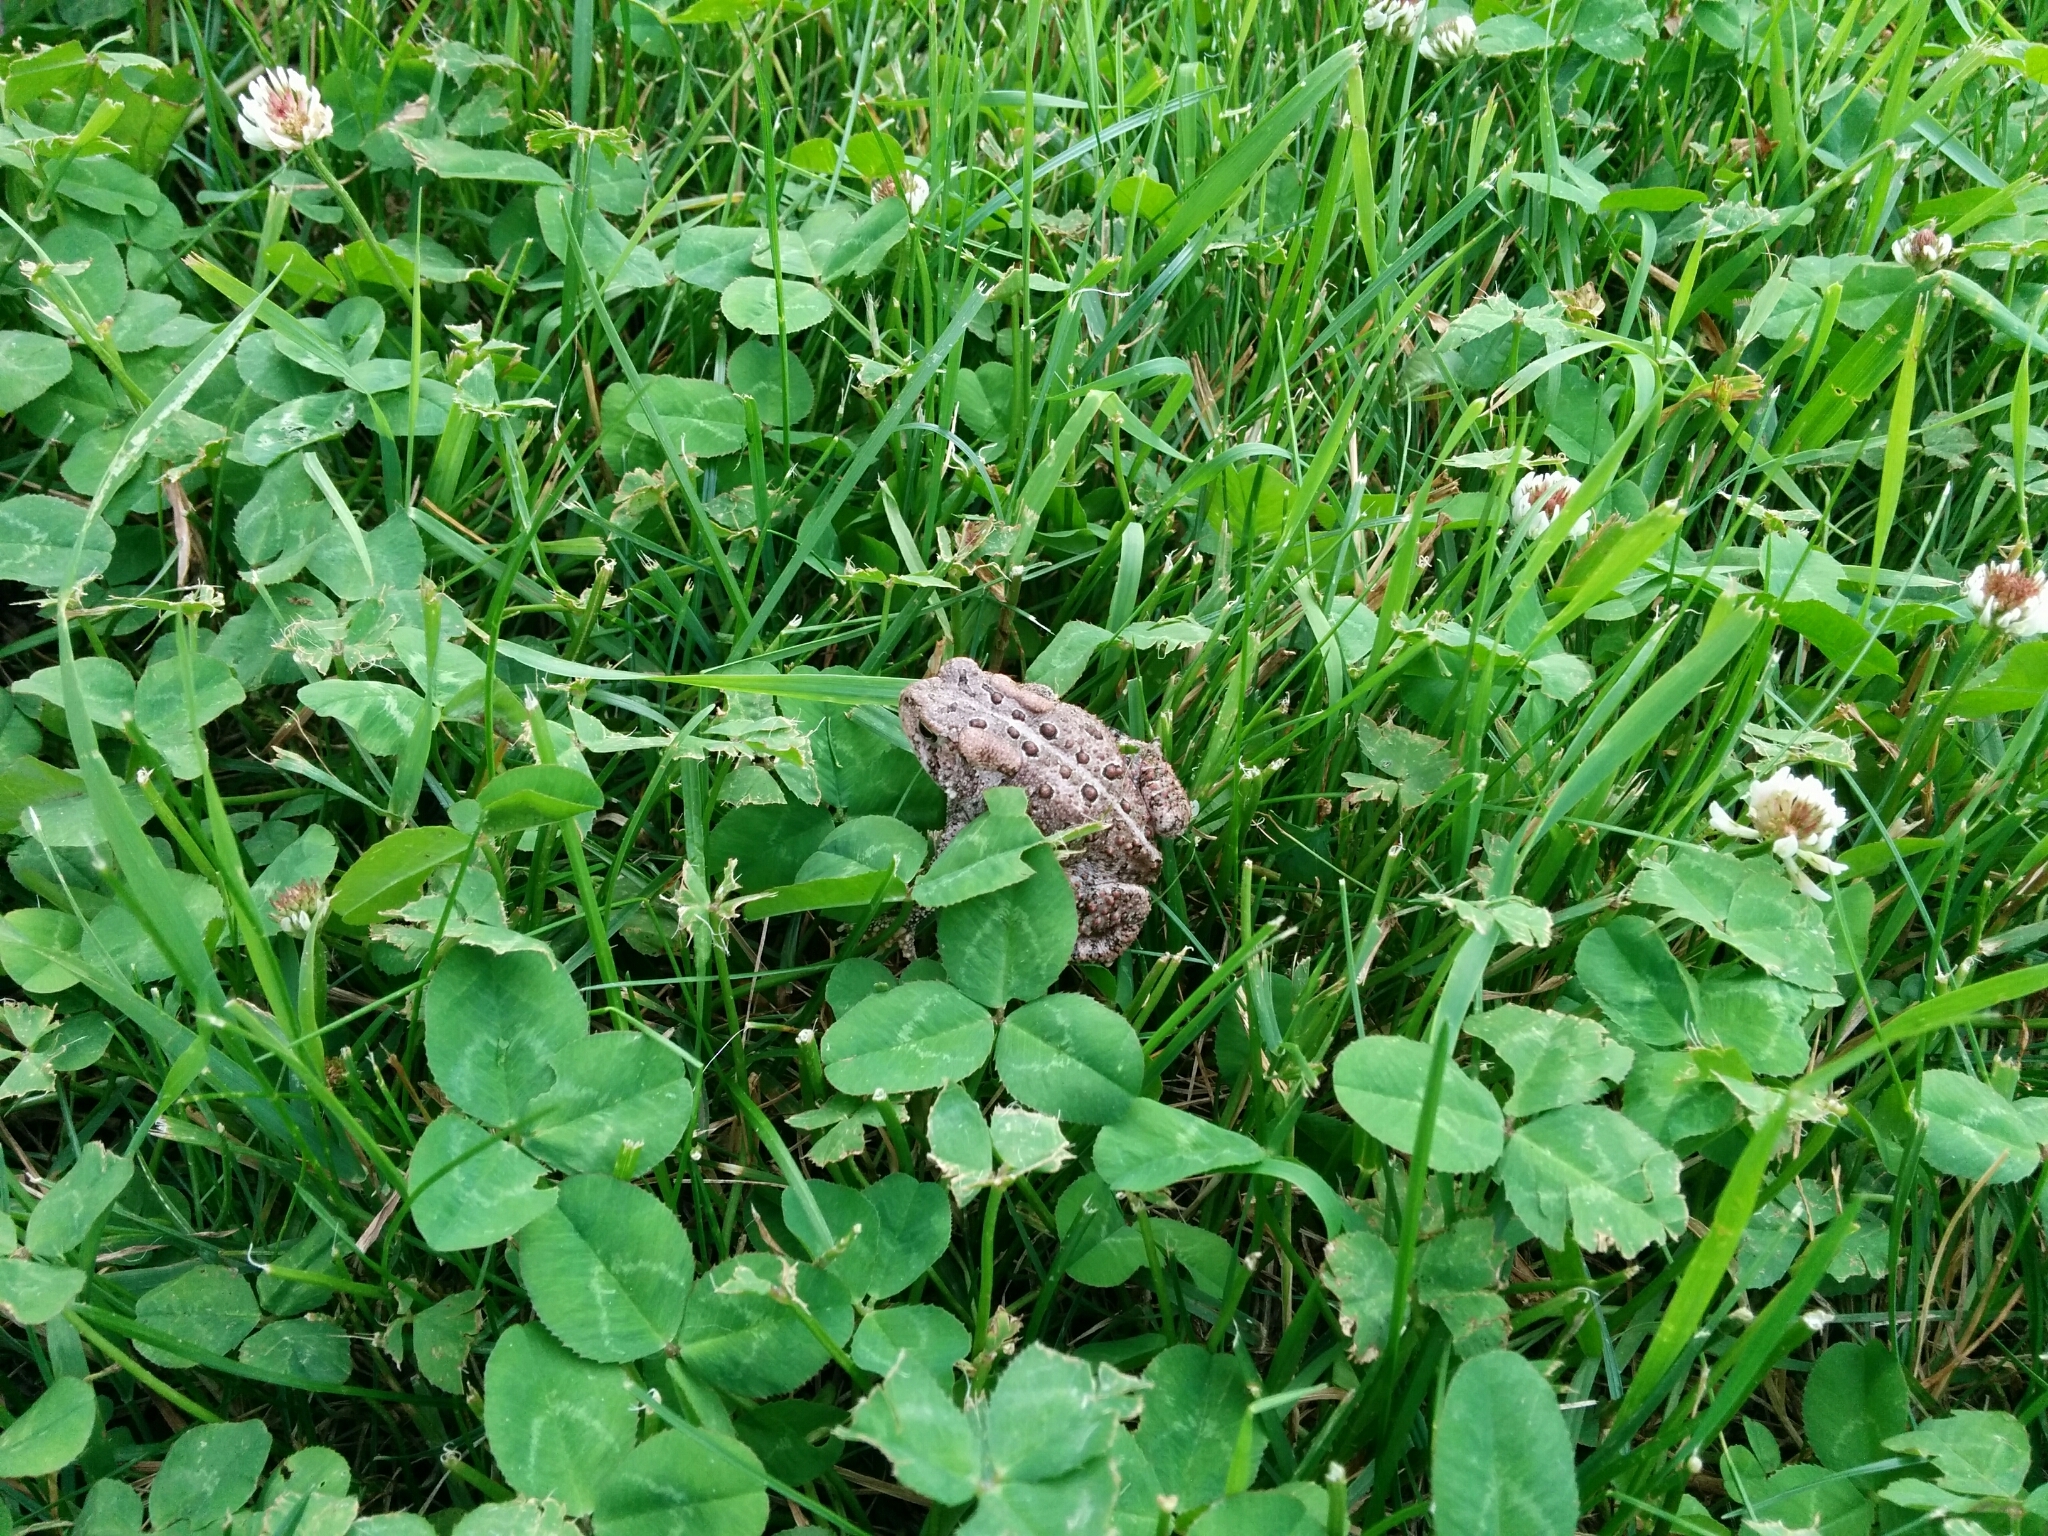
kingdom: Animalia
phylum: Chordata
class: Amphibia
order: Anura
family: Bufonidae
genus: Anaxyrus
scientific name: Anaxyrus americanus
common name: American toad
